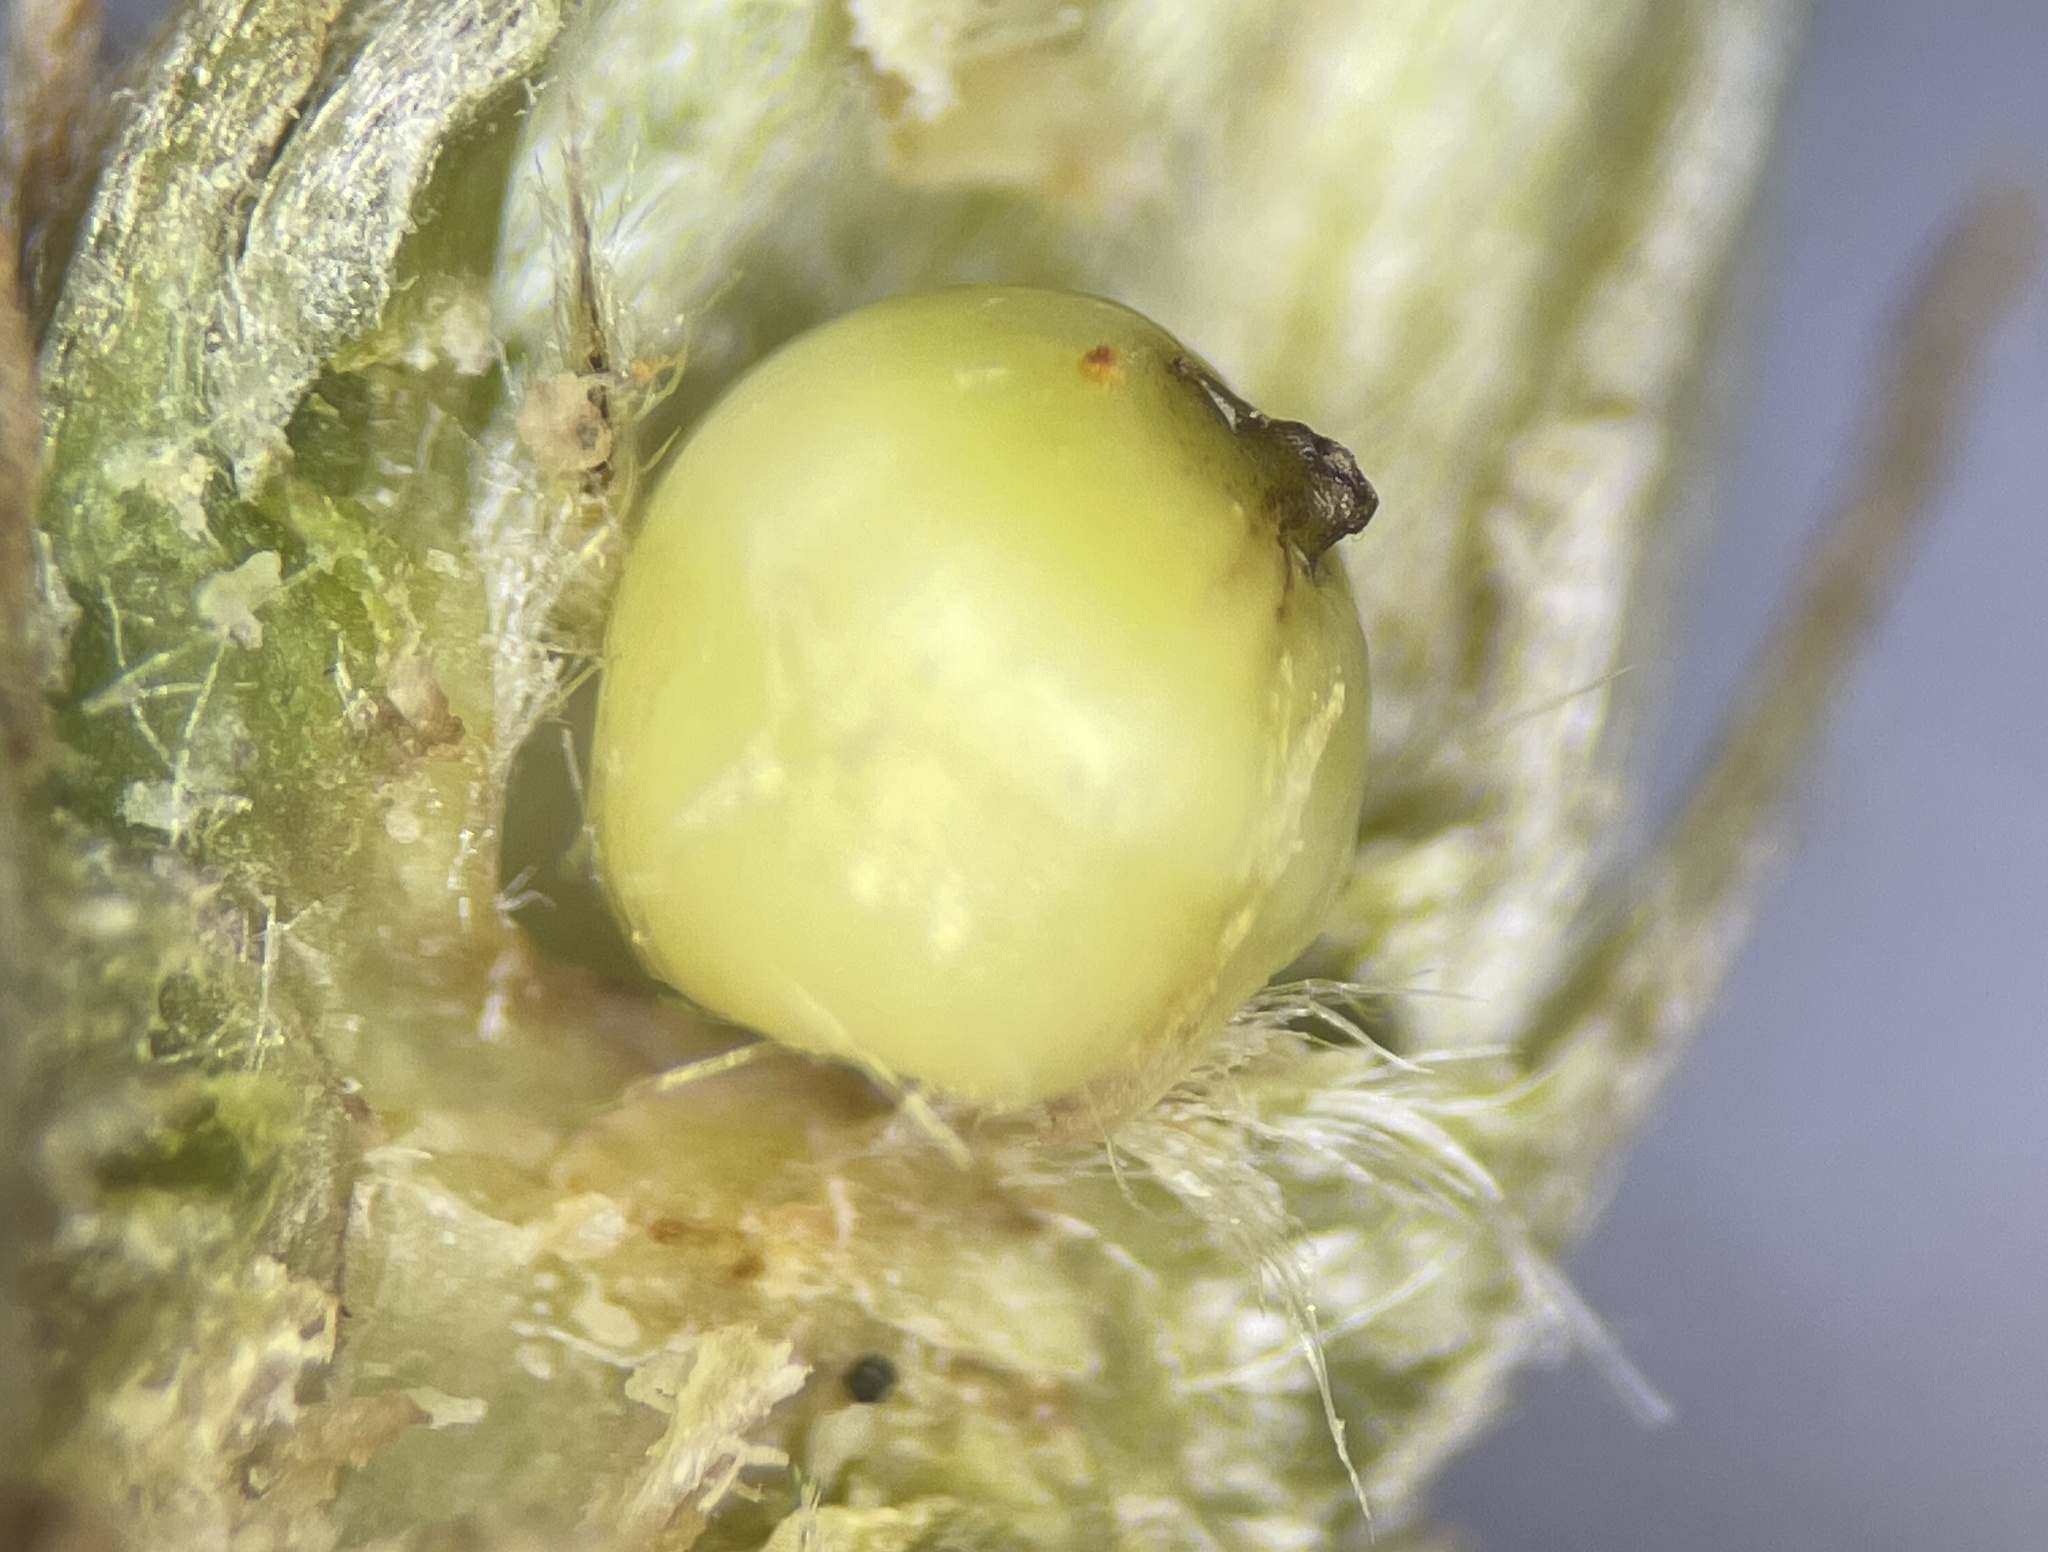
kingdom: Animalia
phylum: Arthropoda
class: Insecta
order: Hymenoptera
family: Cynipidae
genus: Andricus
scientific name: Andricus
